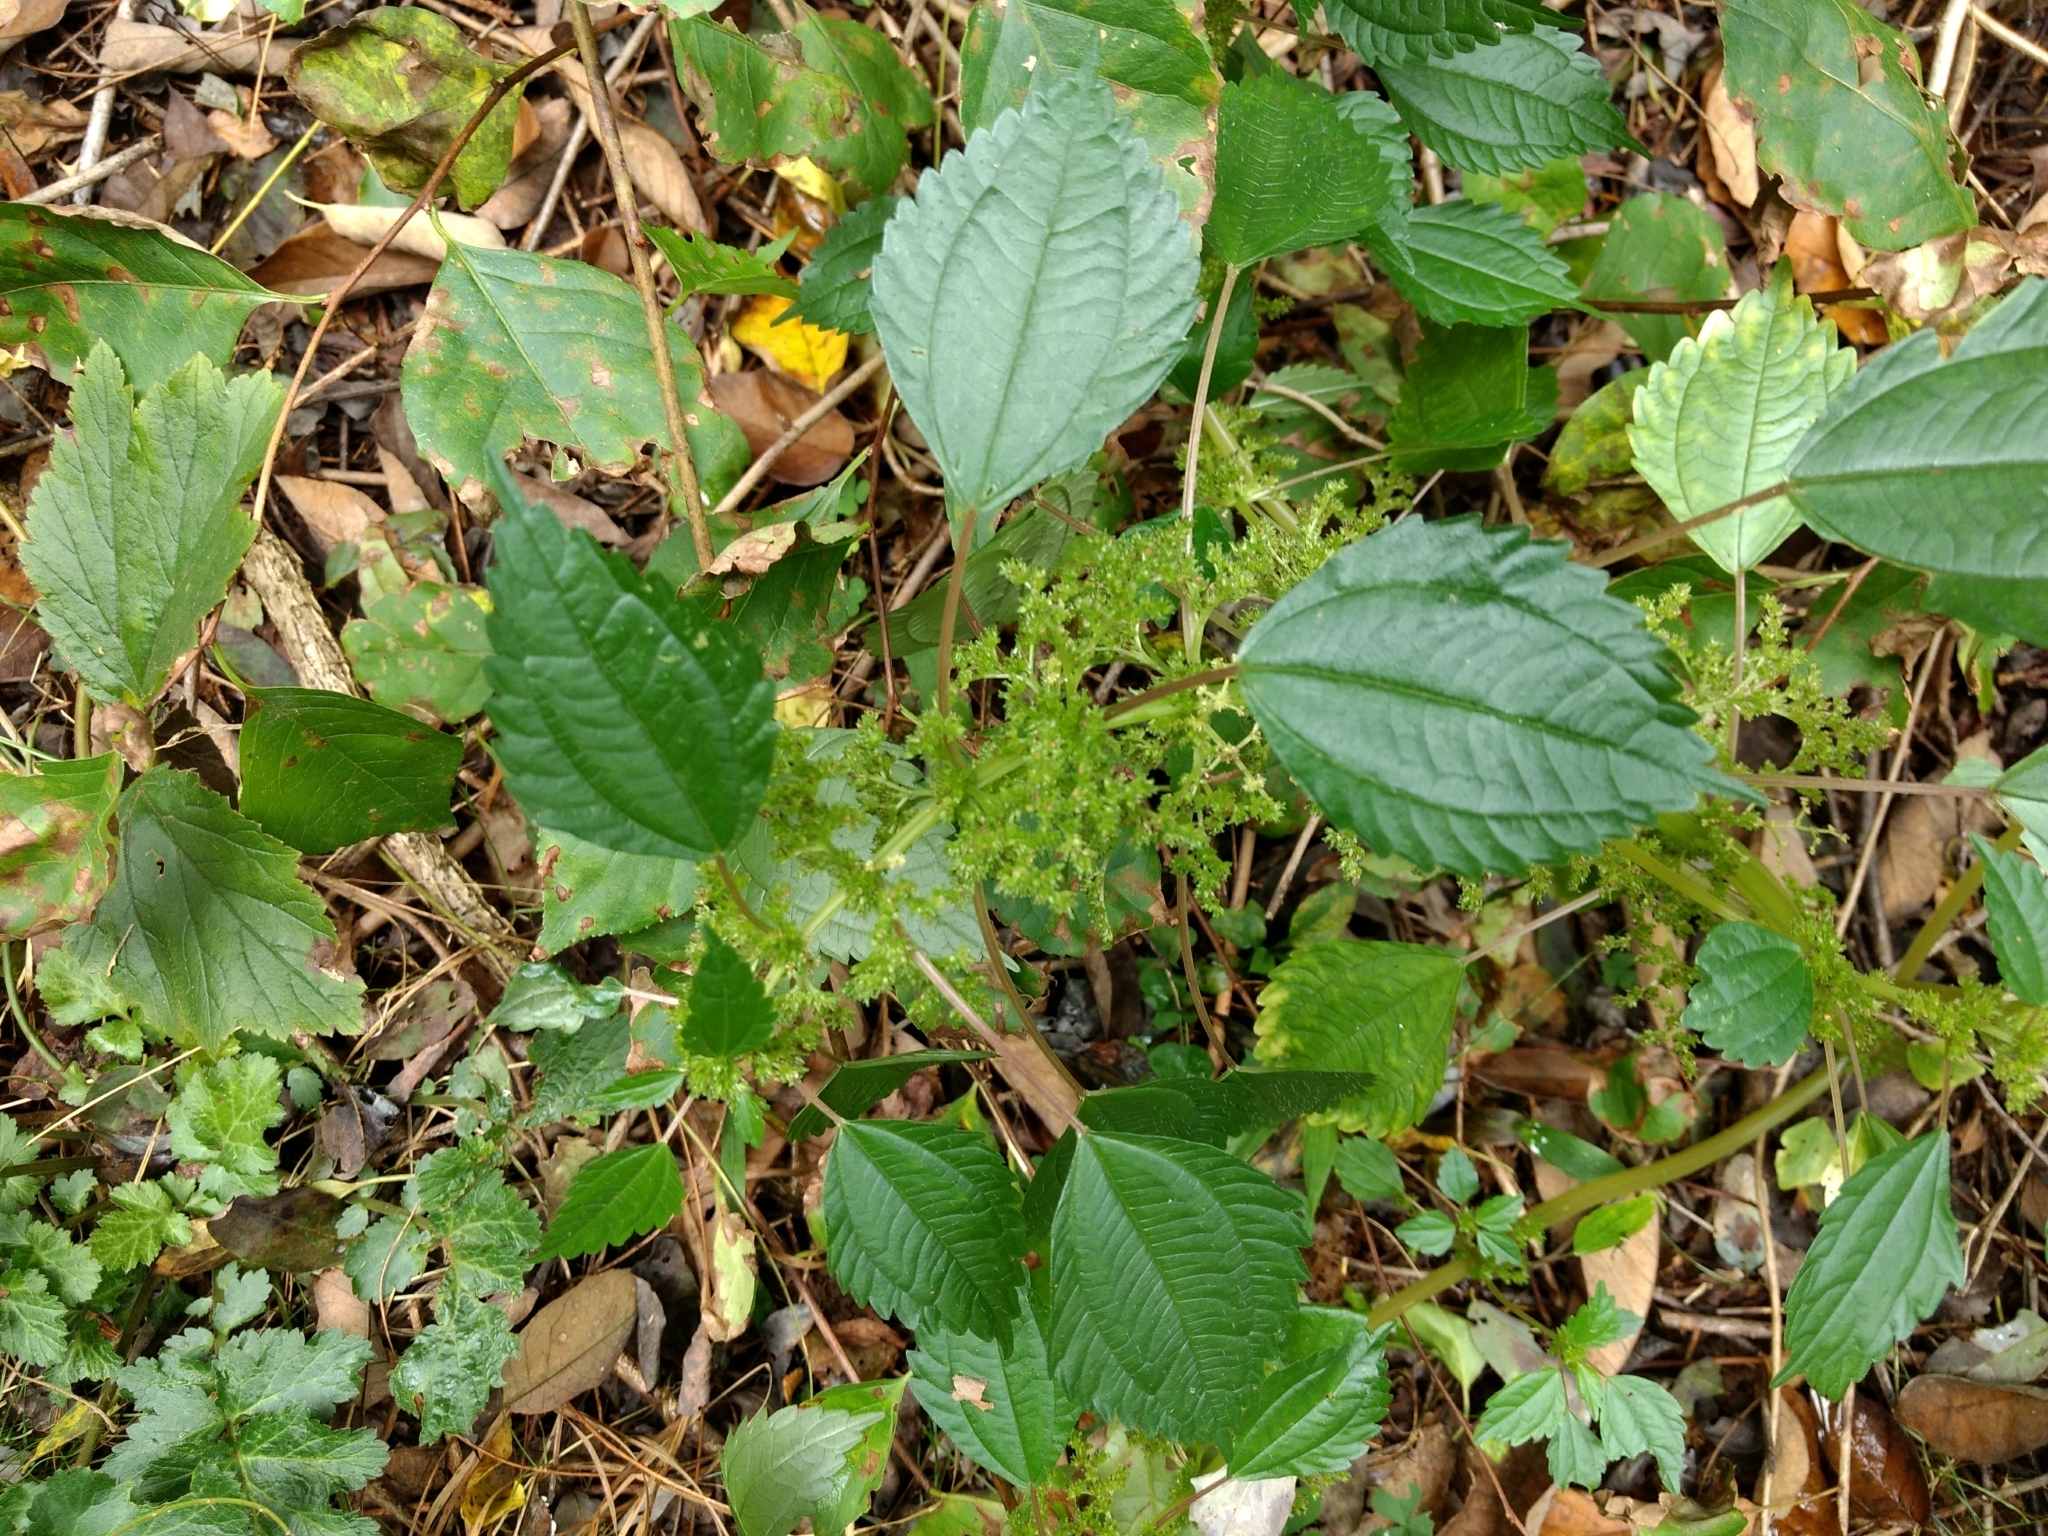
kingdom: Plantae
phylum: Tracheophyta
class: Magnoliopsida
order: Rosales
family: Urticaceae
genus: Pilea
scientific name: Pilea pumila
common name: Clearweed
